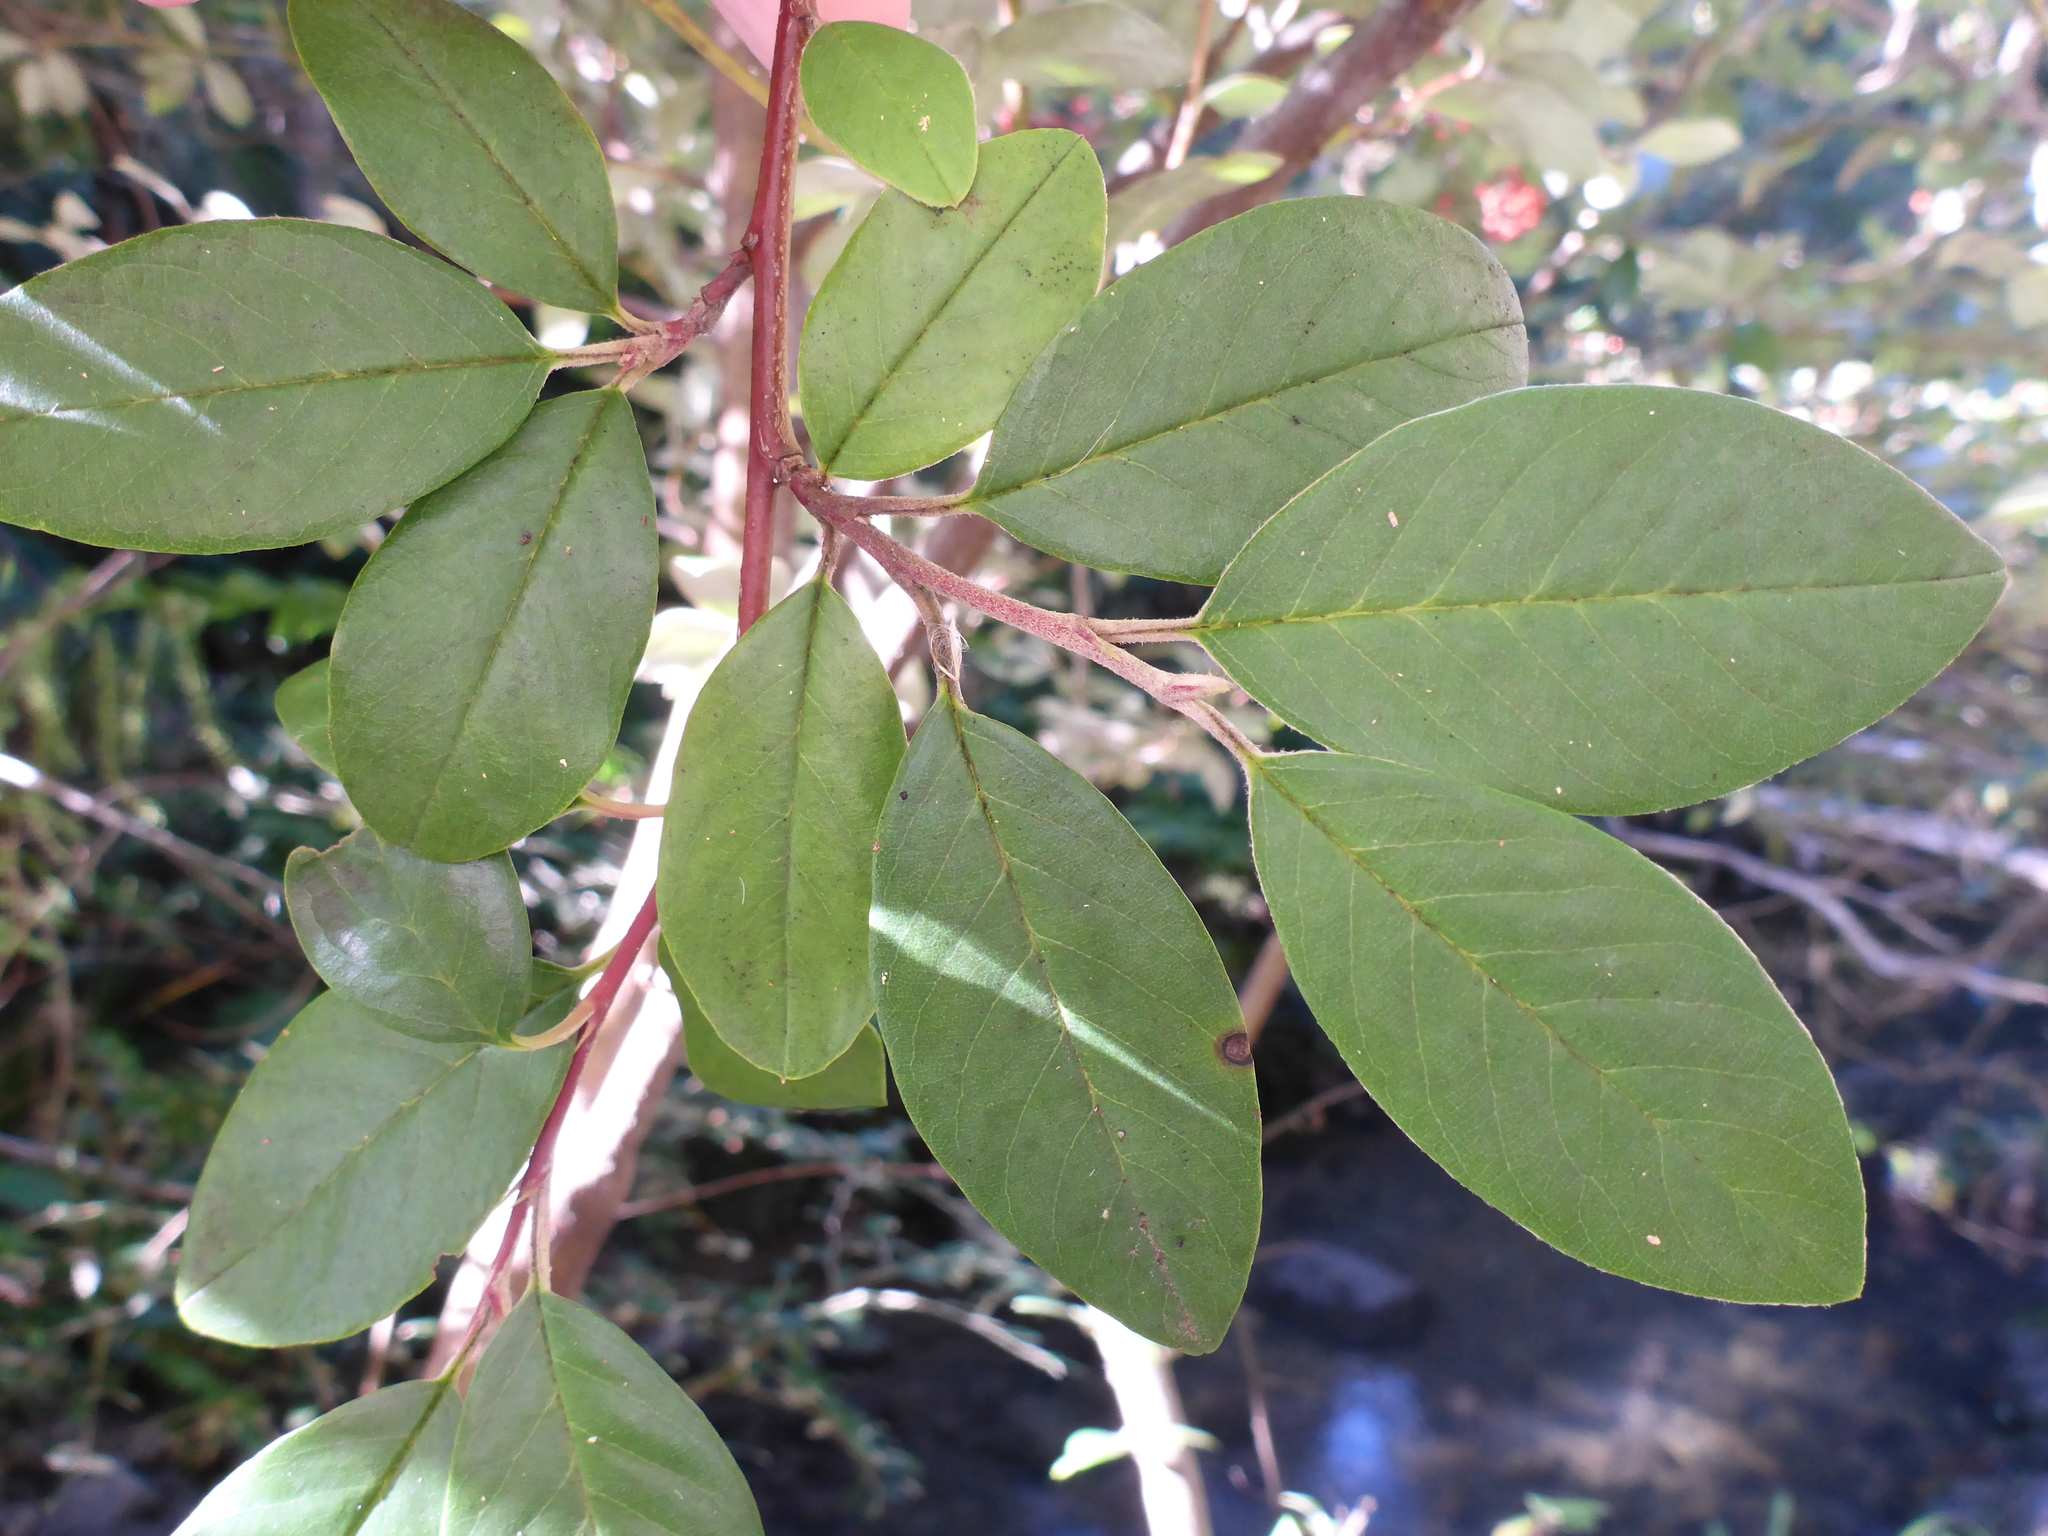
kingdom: Plantae
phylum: Tracheophyta
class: Magnoliopsida
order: Rosales
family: Rosaceae
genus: Cotoneaster
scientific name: Cotoneaster glaucophyllus
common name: Glaucous cotoneaster
